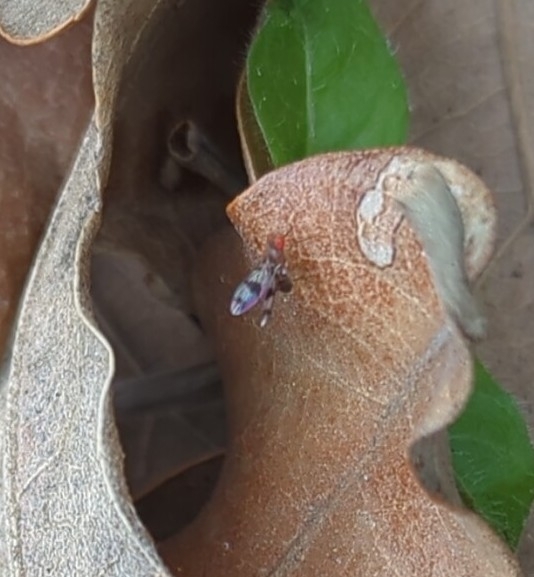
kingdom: Animalia
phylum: Arthropoda
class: Insecta
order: Diptera
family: Drosophilidae
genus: Chymomyza
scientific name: Chymomyza amoena
